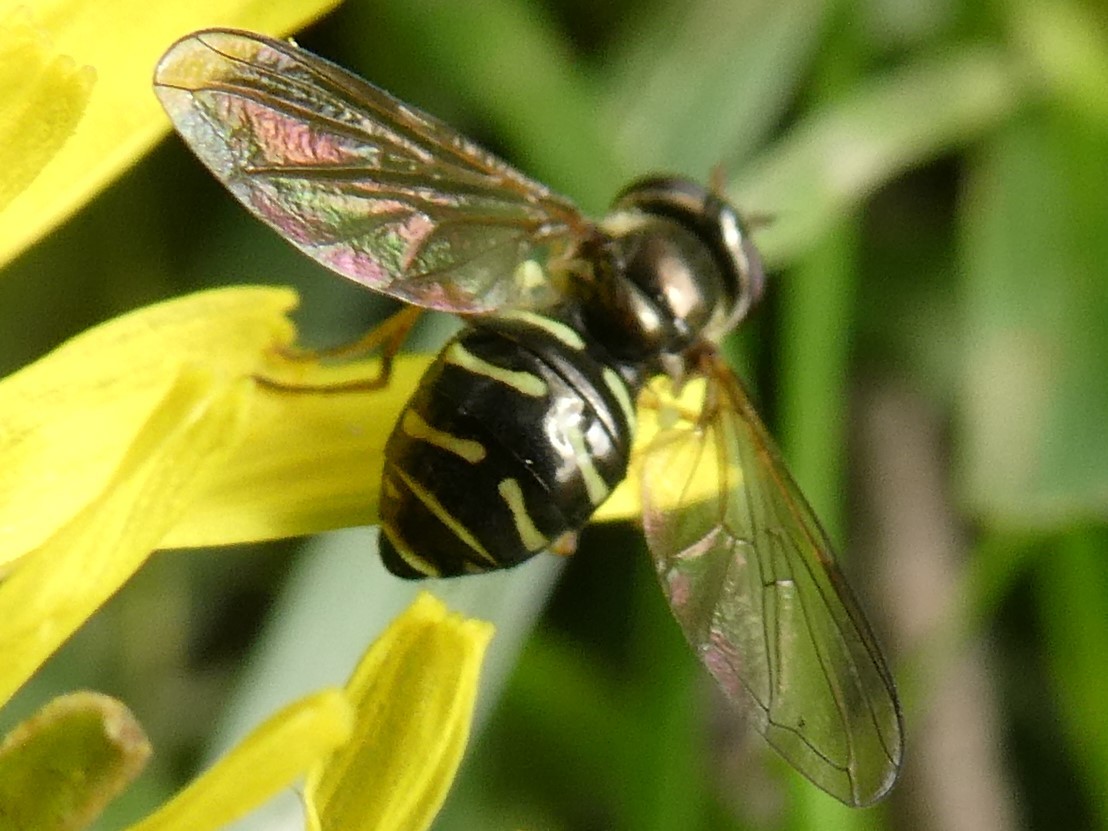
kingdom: Animalia
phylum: Arthropoda
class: Insecta
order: Diptera
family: Syrphidae
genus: Dasysyrphus
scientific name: Dasysyrphus
